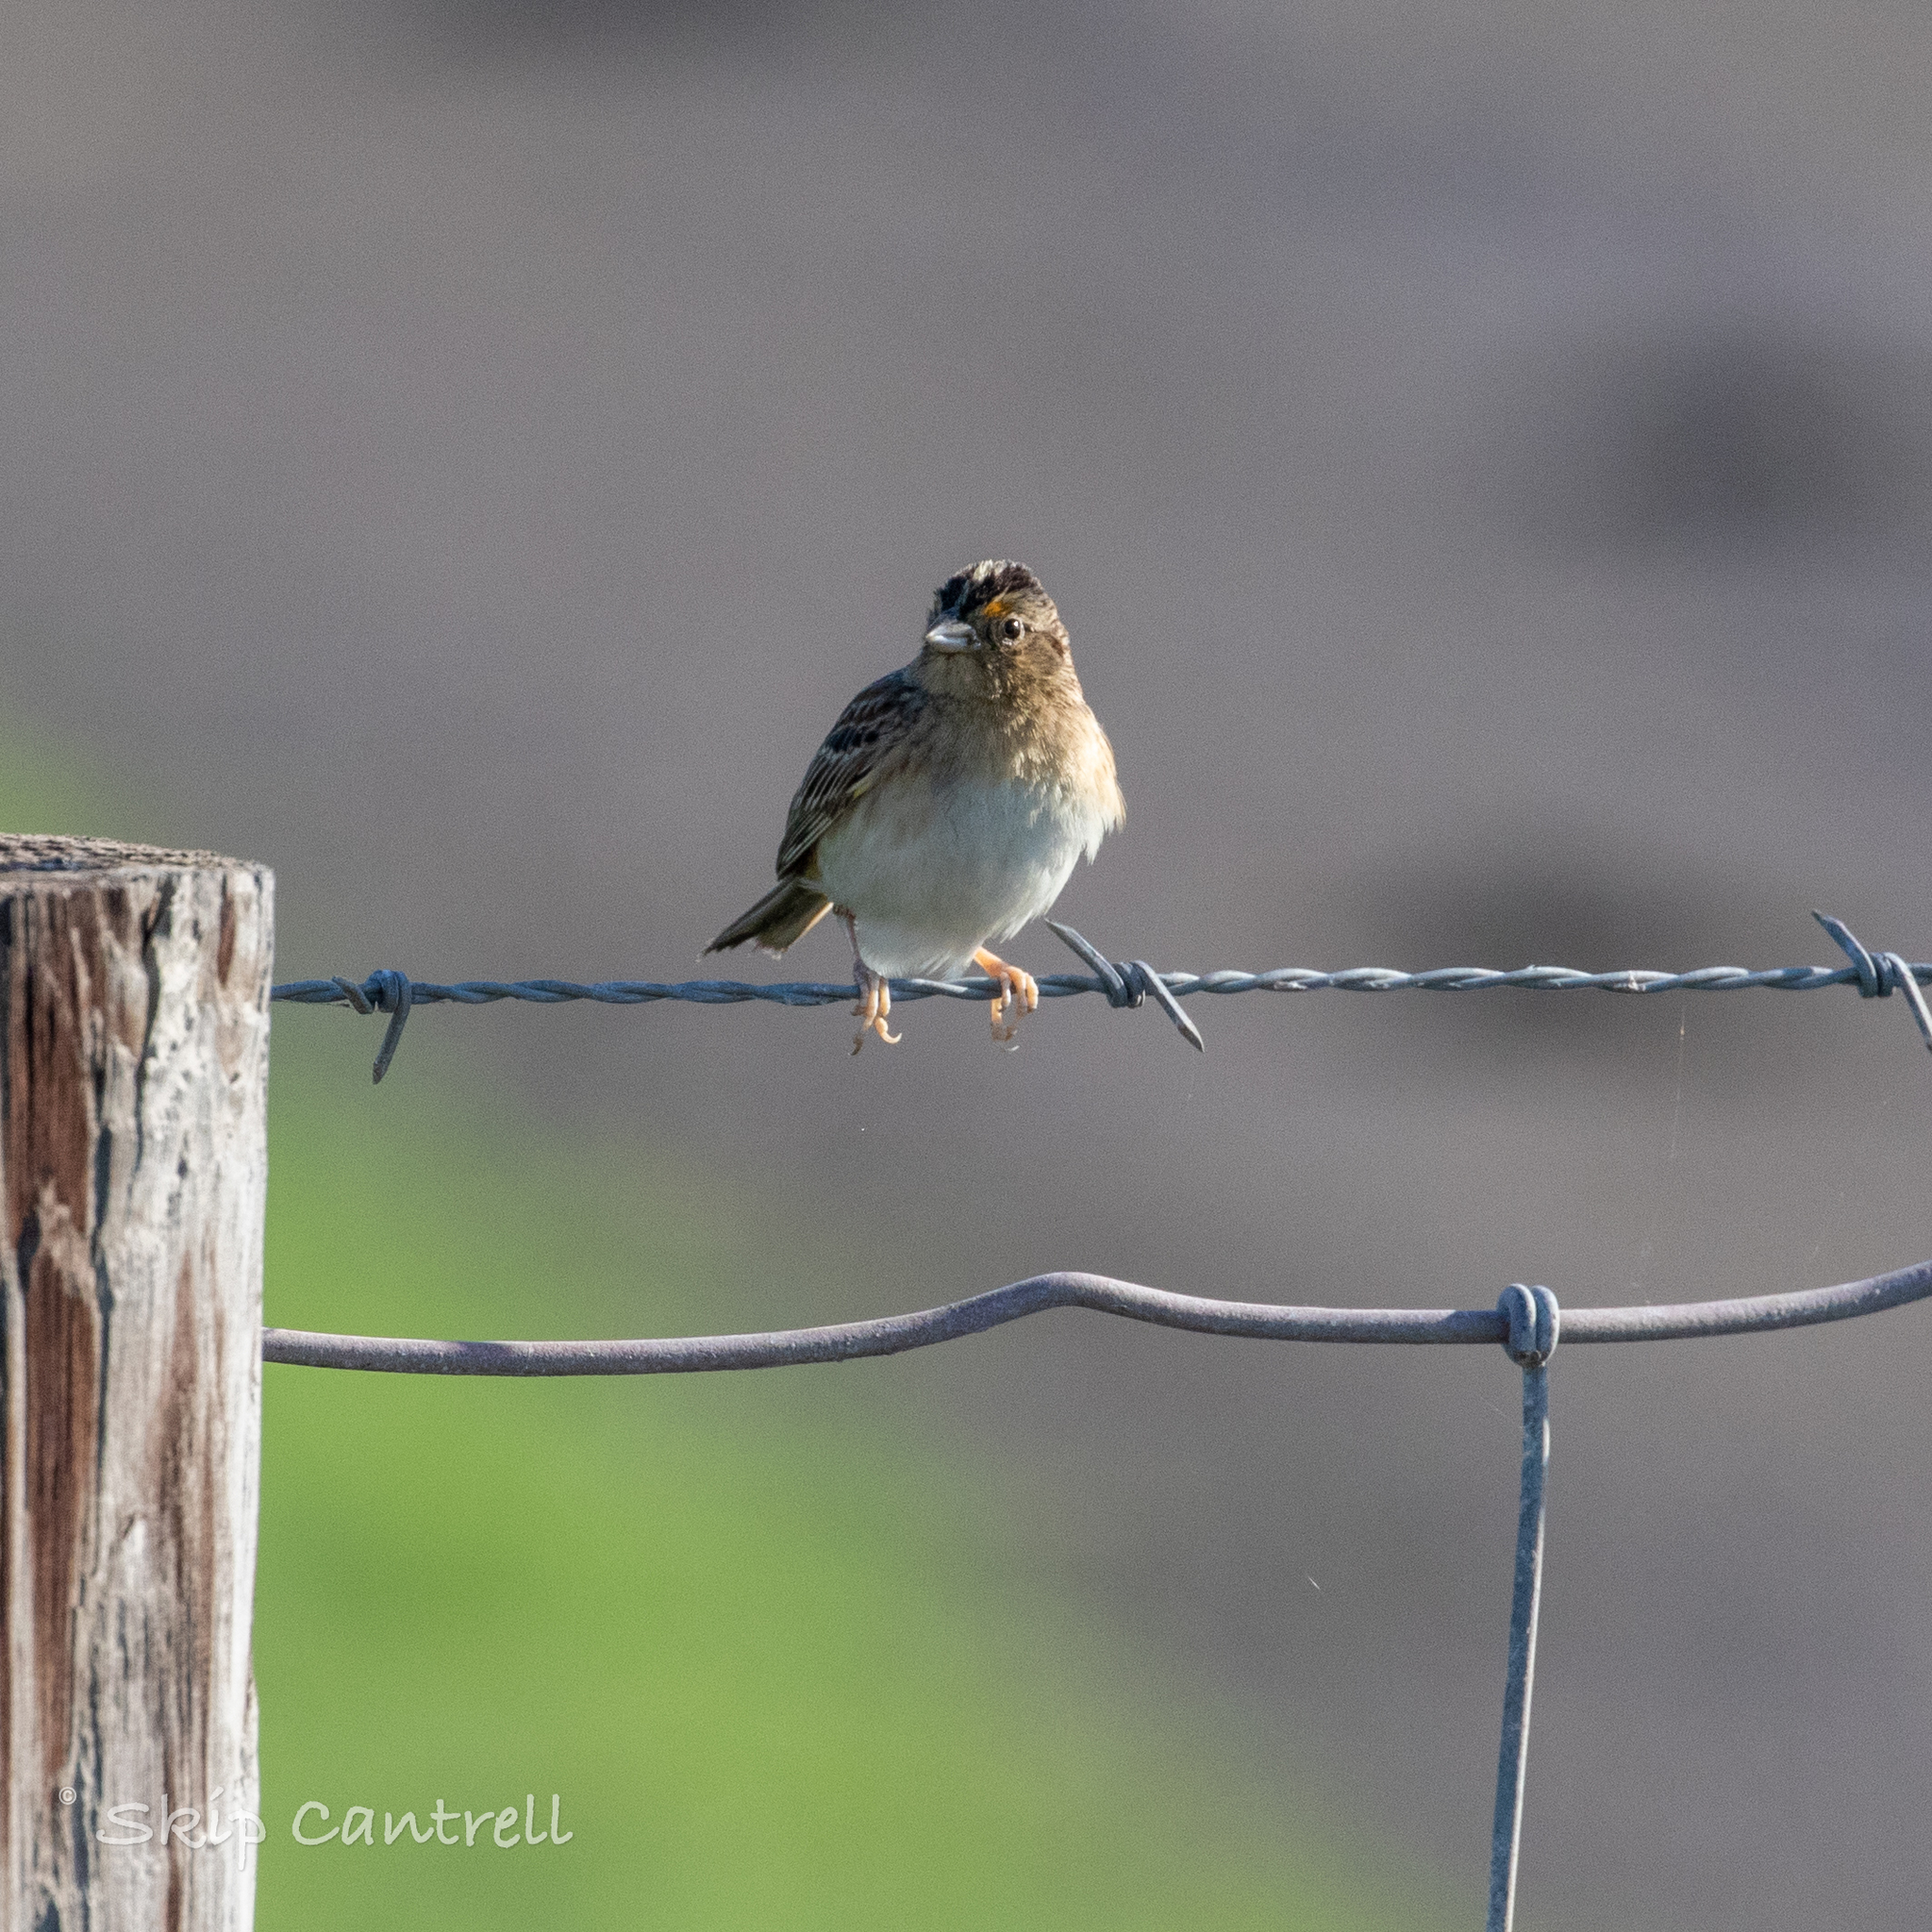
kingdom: Animalia
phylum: Chordata
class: Aves
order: Passeriformes
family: Passerellidae
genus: Ammodramus
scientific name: Ammodramus savannarum
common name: Grasshopper sparrow
